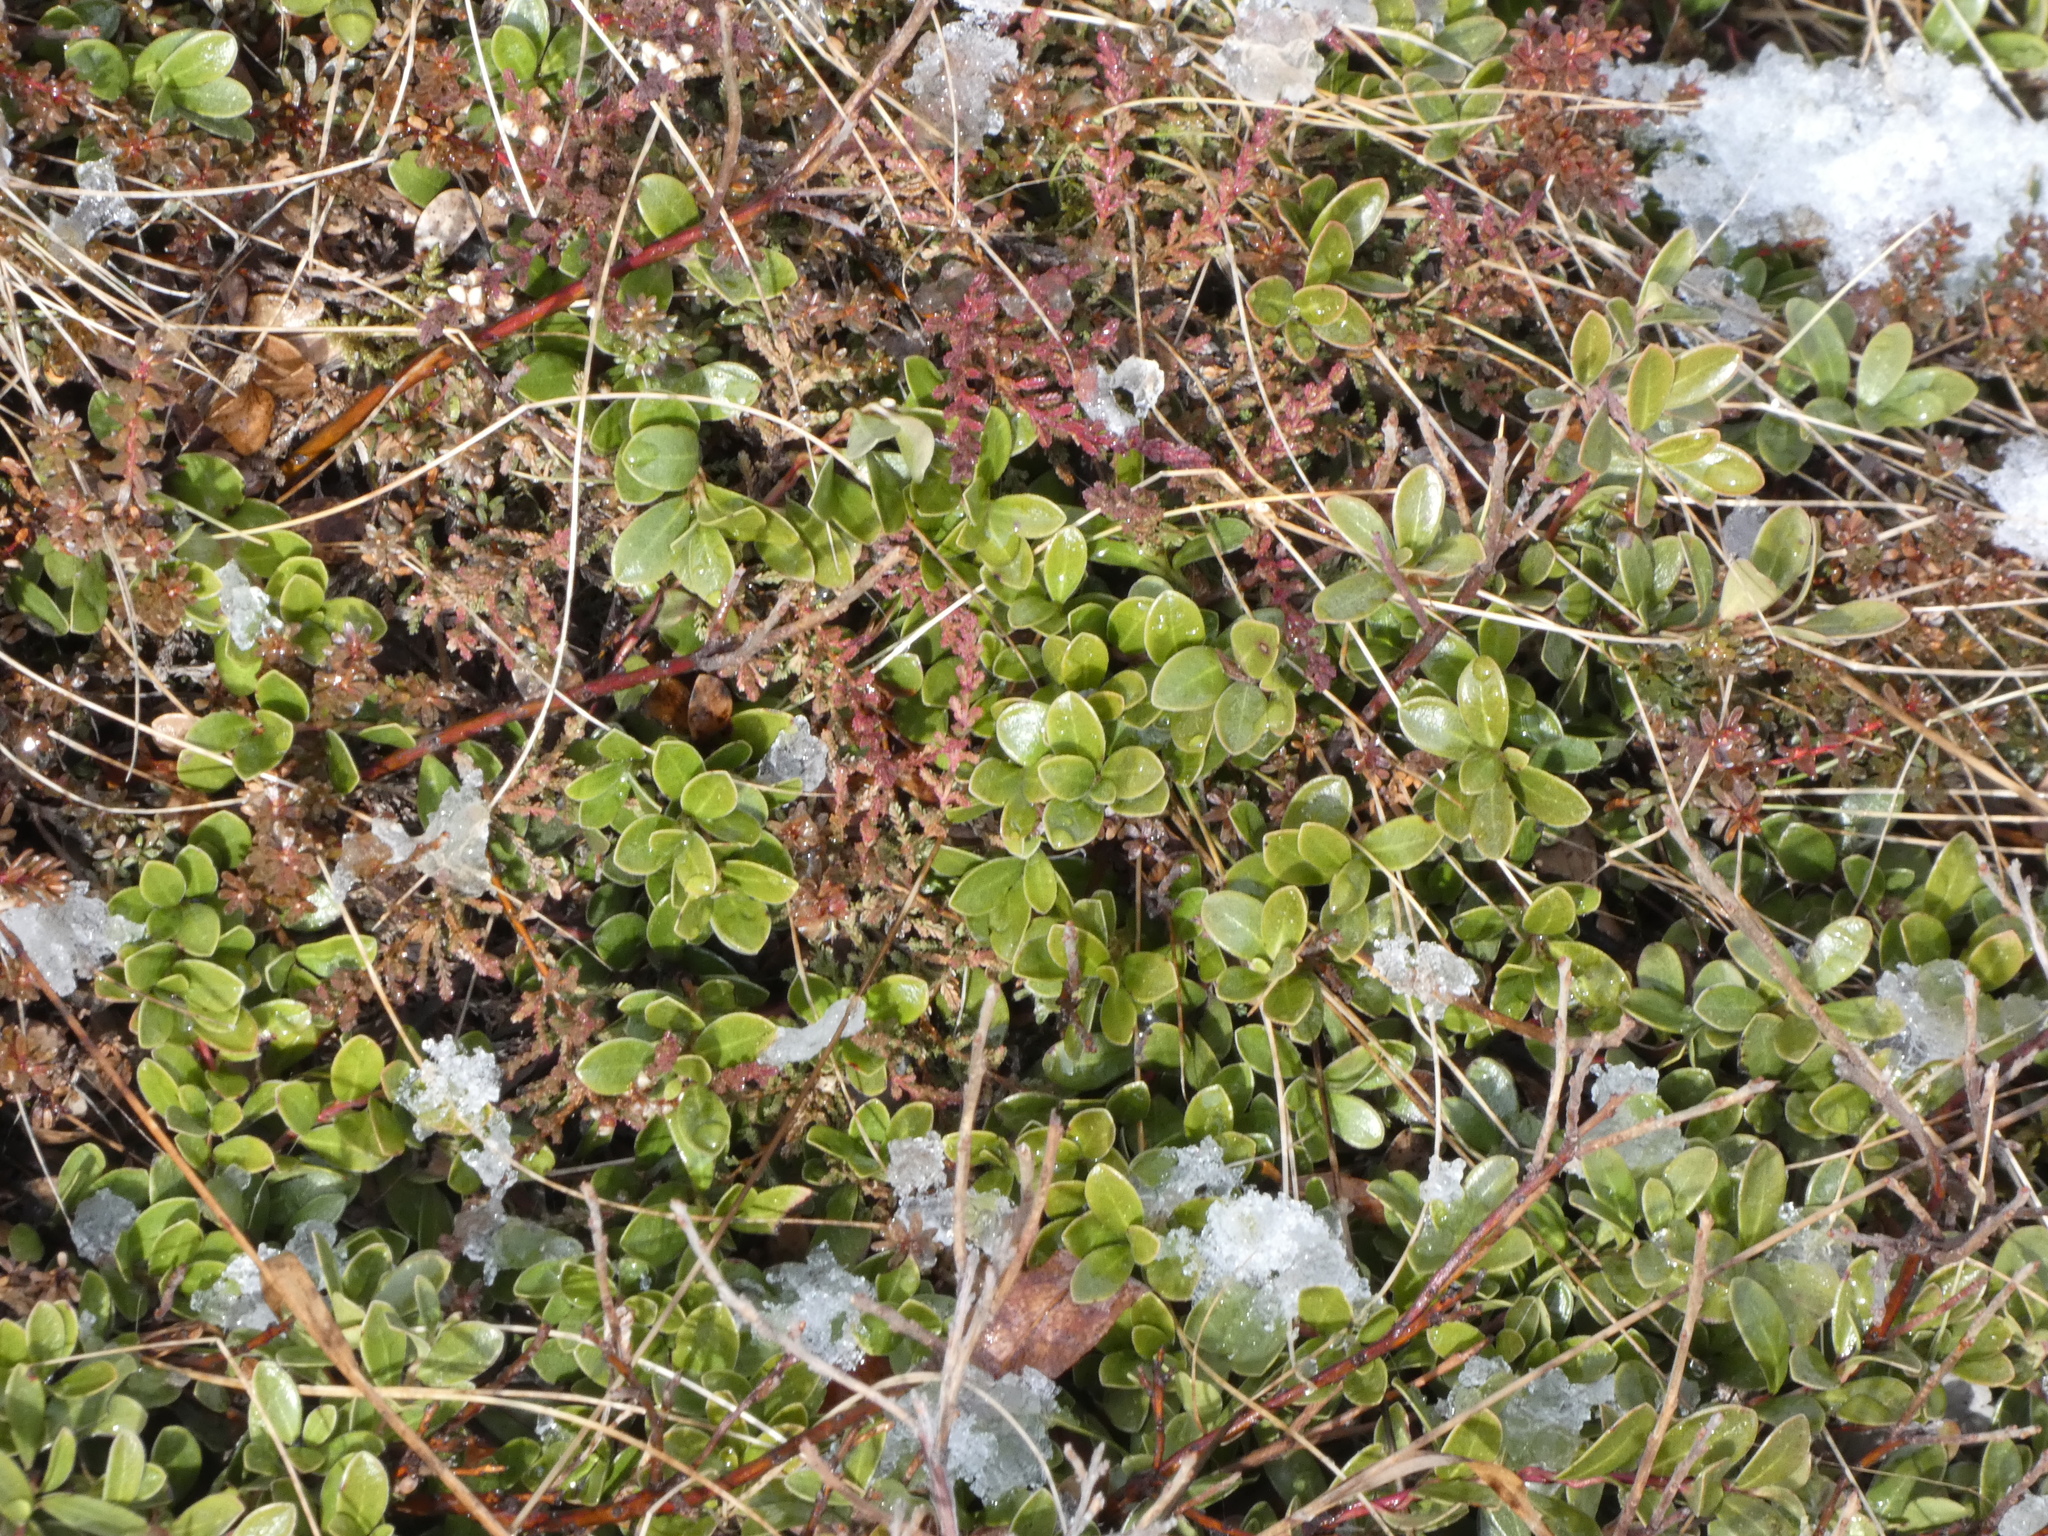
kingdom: Plantae
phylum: Tracheophyta
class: Magnoliopsida
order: Ericales
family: Ericaceae
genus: Arctostaphylos
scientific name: Arctostaphylos uva-ursi
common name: Bearberry
